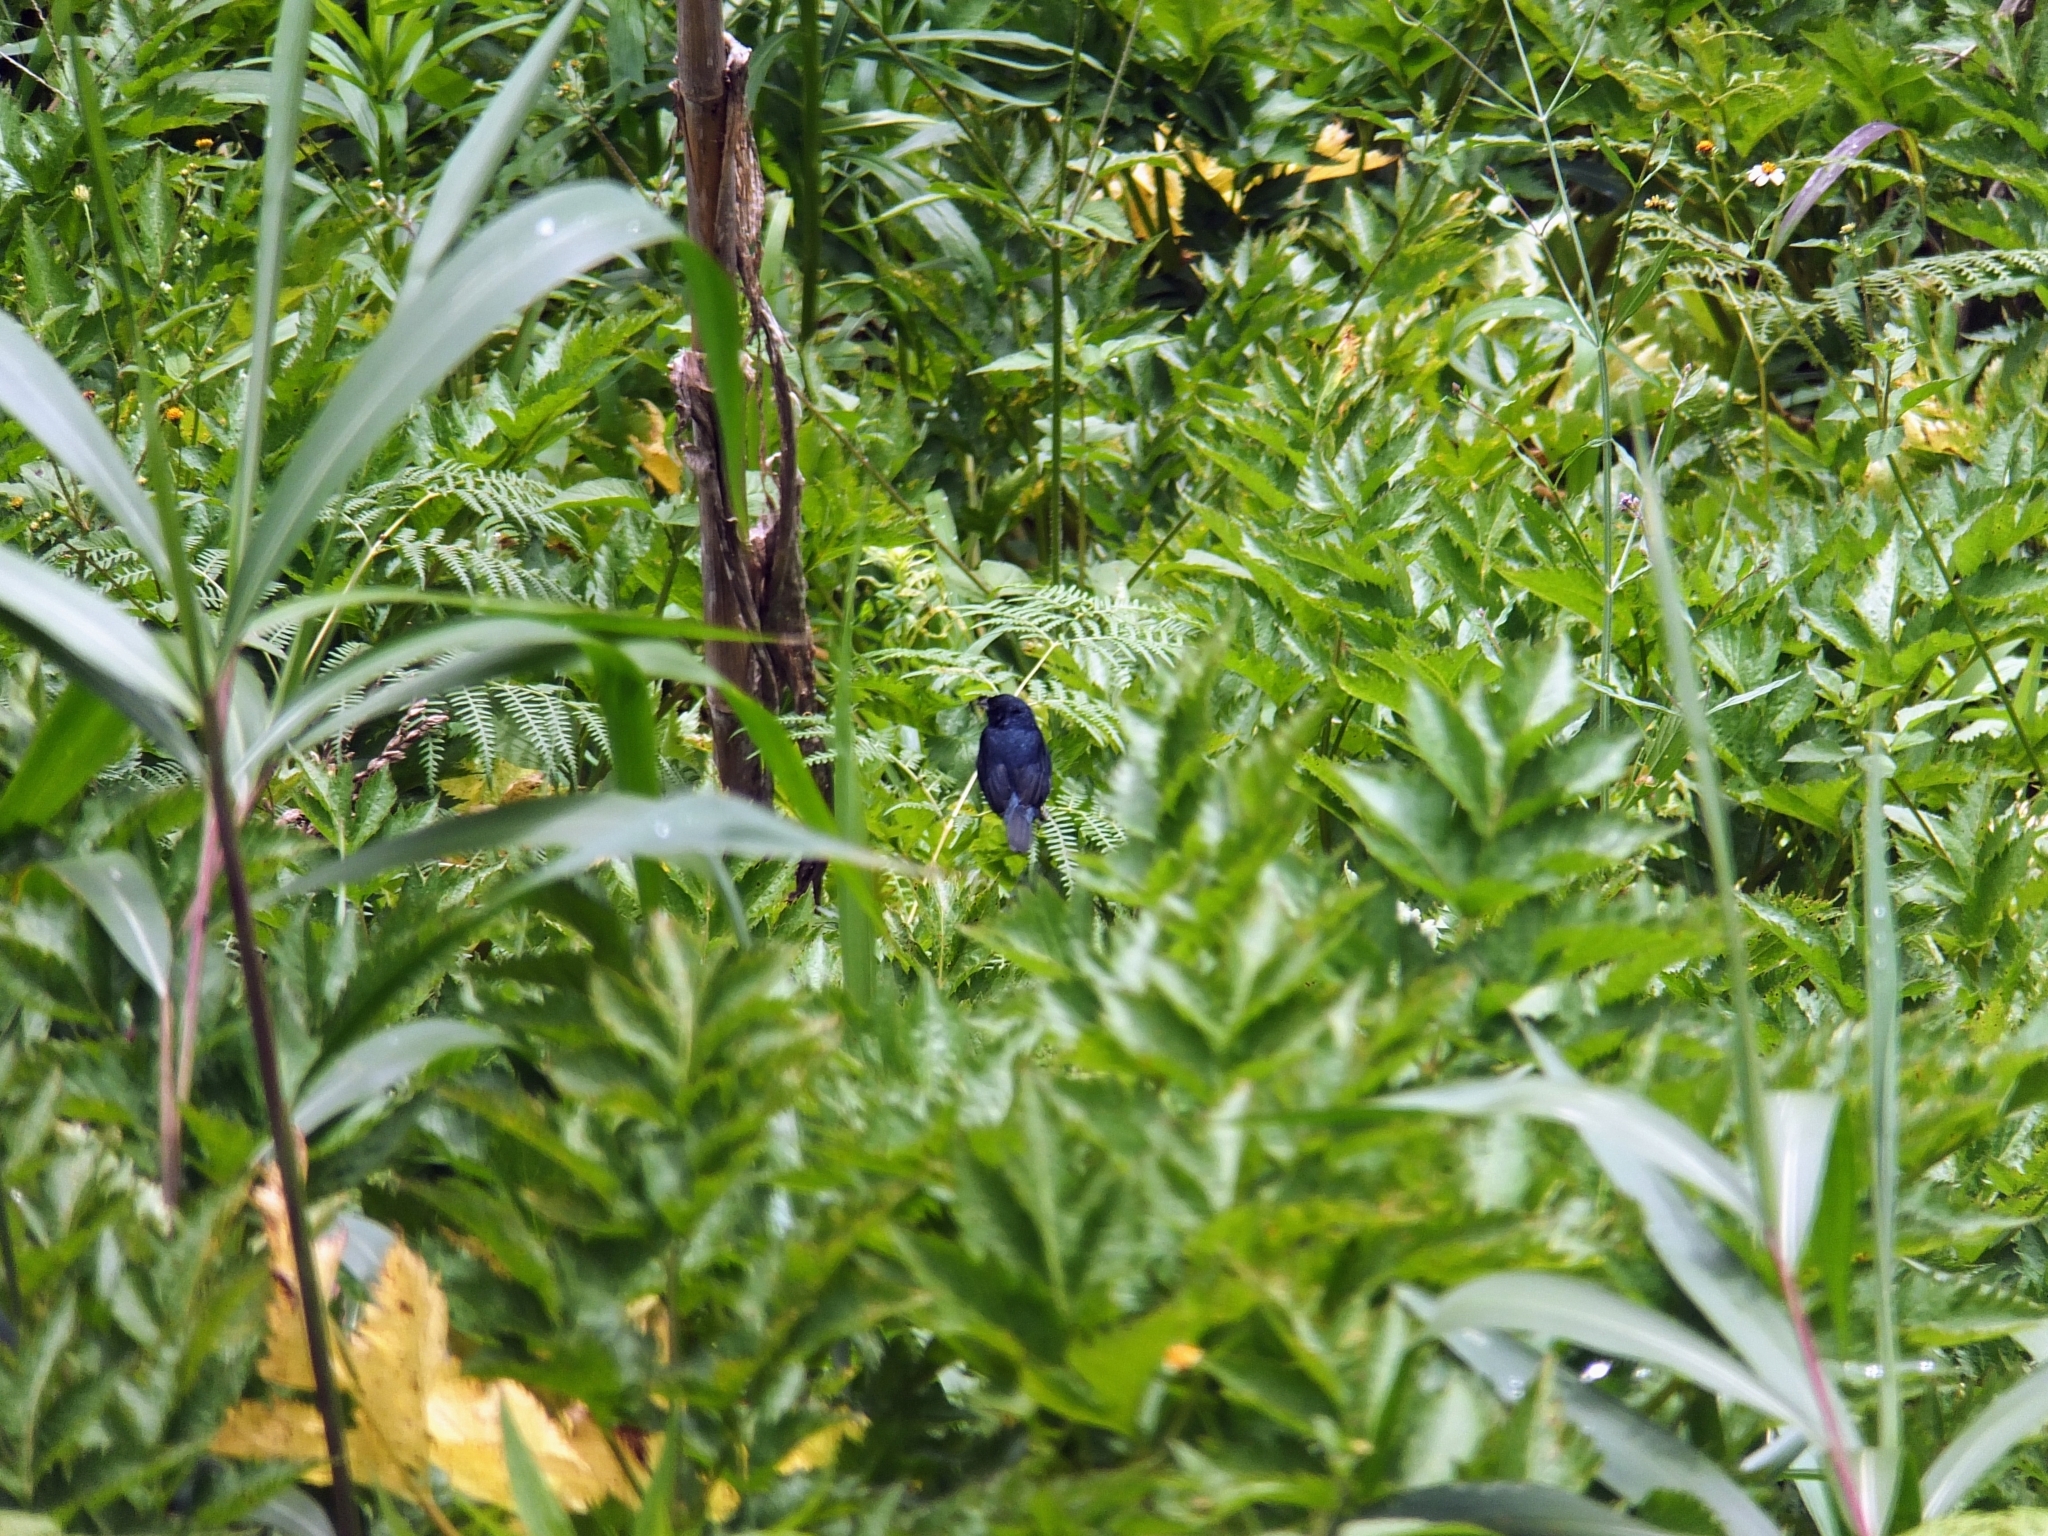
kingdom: Animalia
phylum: Chordata
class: Aves
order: Passeriformes
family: Thraupidae
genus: Volatinia
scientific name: Volatinia jacarina
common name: Blue-black grassquit
